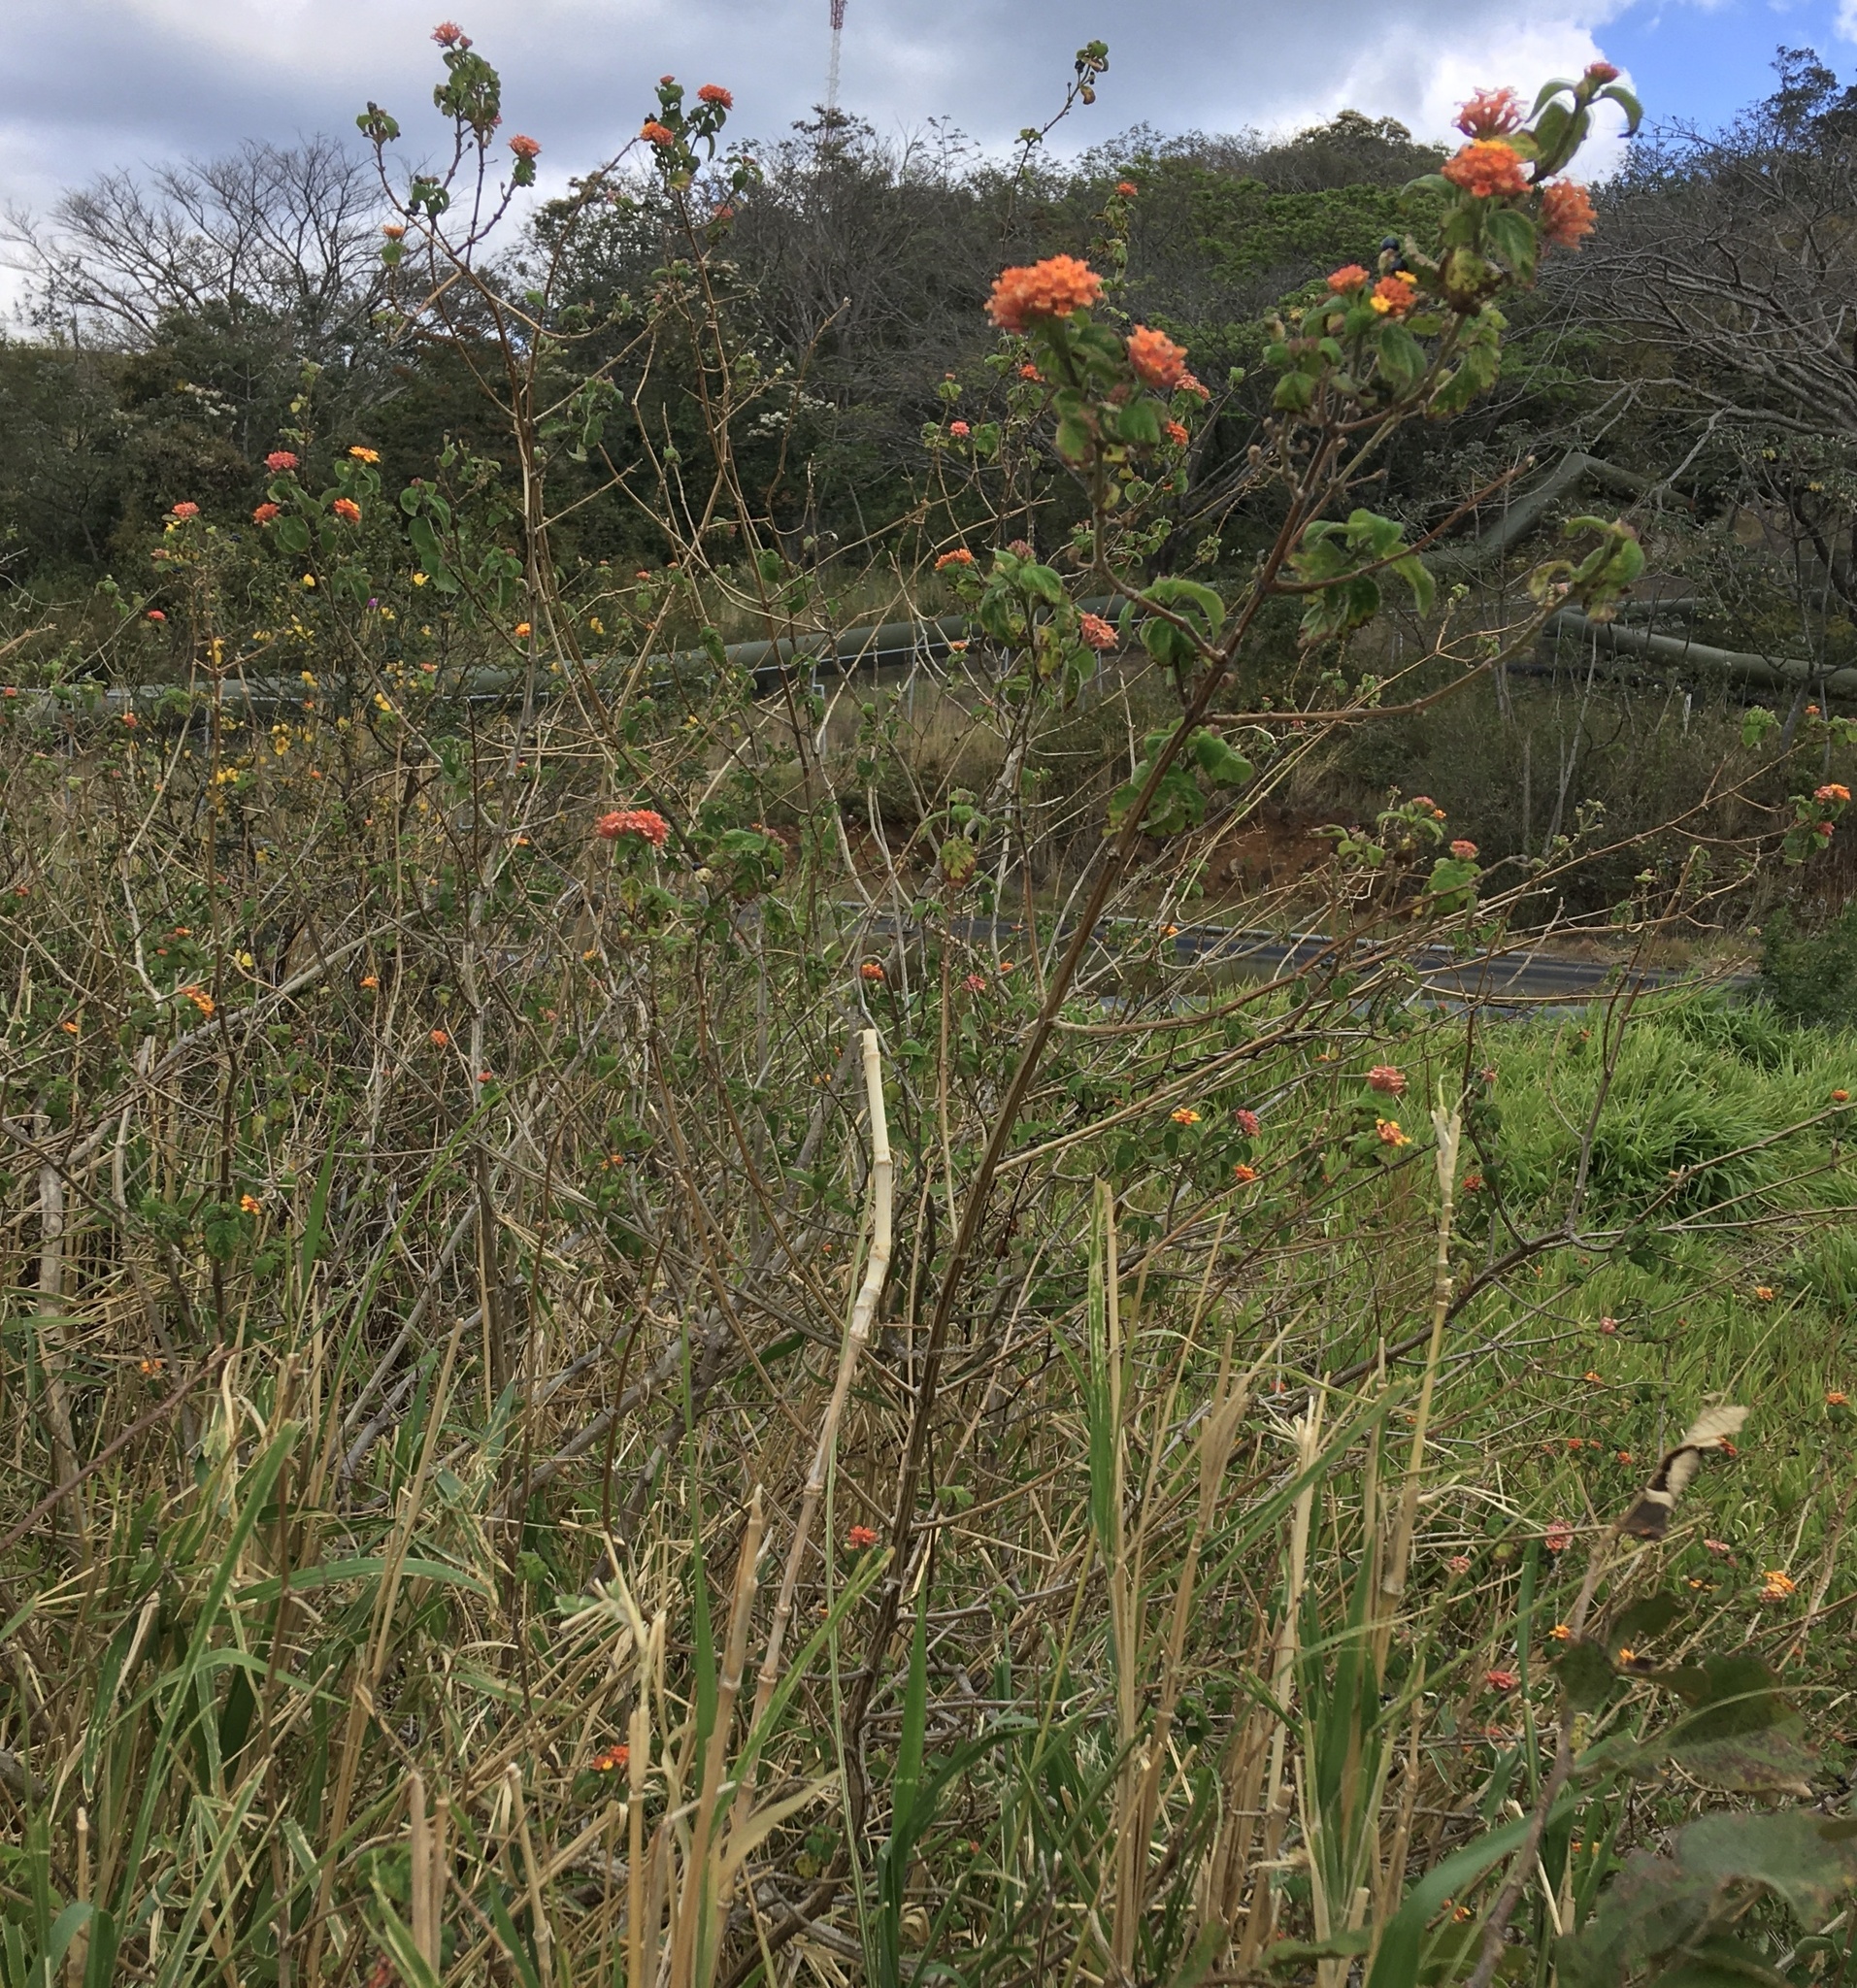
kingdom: Plantae
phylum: Tracheophyta
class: Magnoliopsida
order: Lamiales
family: Verbenaceae
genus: Lantana
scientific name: Lantana camara
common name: Lantana
